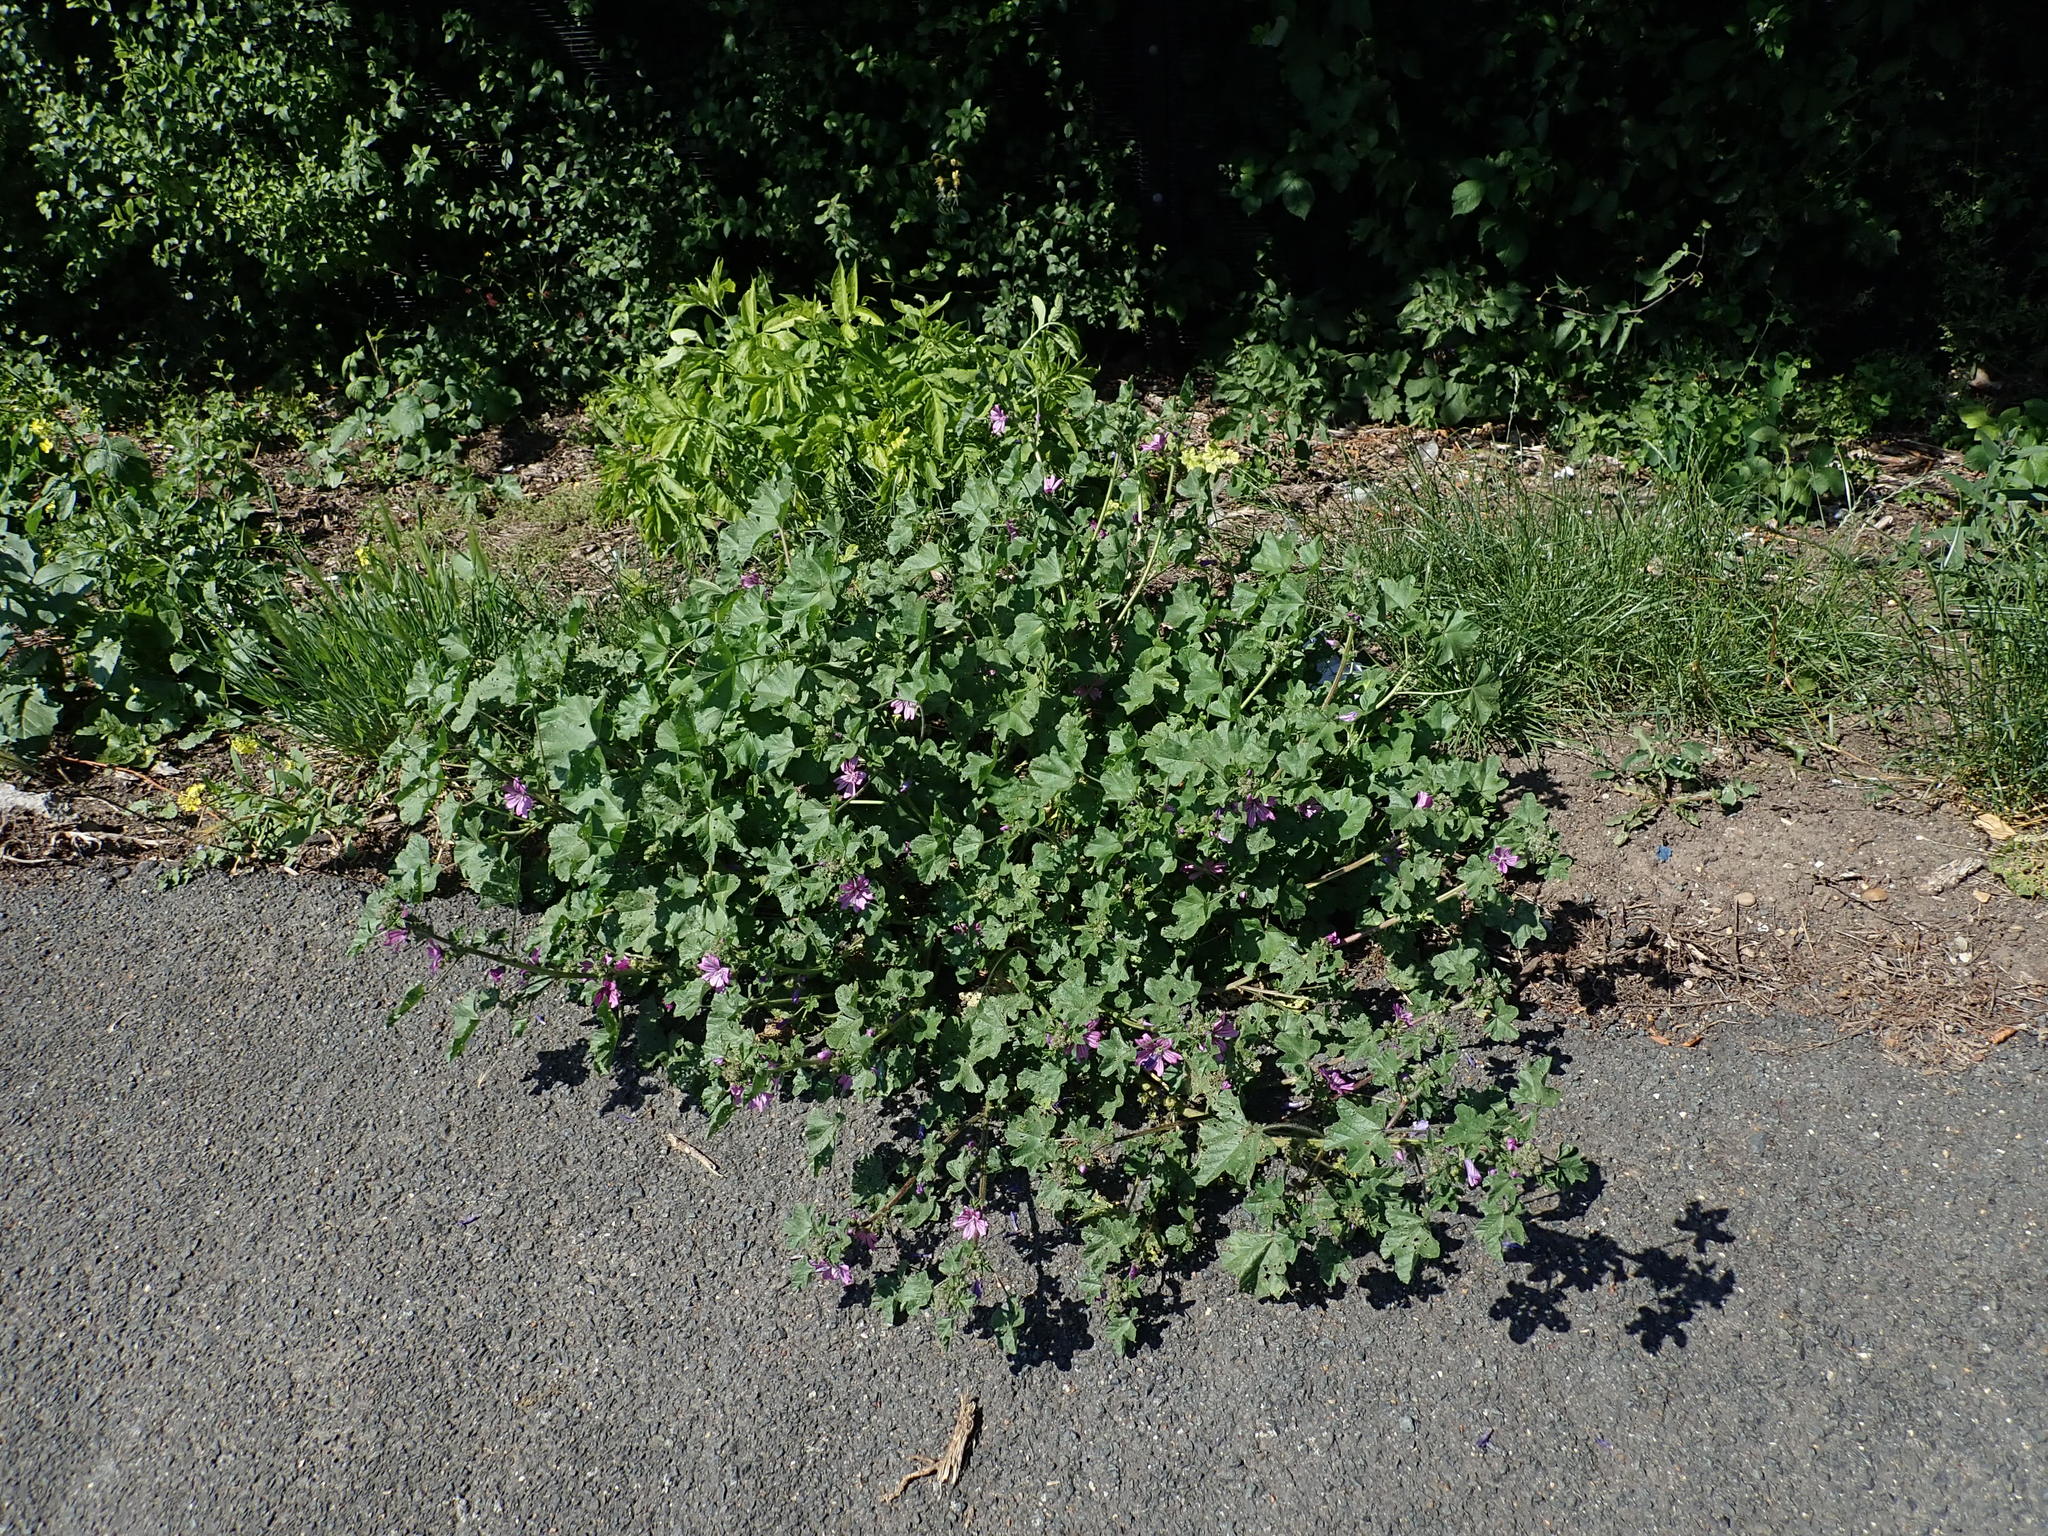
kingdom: Plantae
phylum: Tracheophyta
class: Magnoliopsida
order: Malvales
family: Malvaceae
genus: Malva
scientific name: Malva sylvestris
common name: Common mallow
